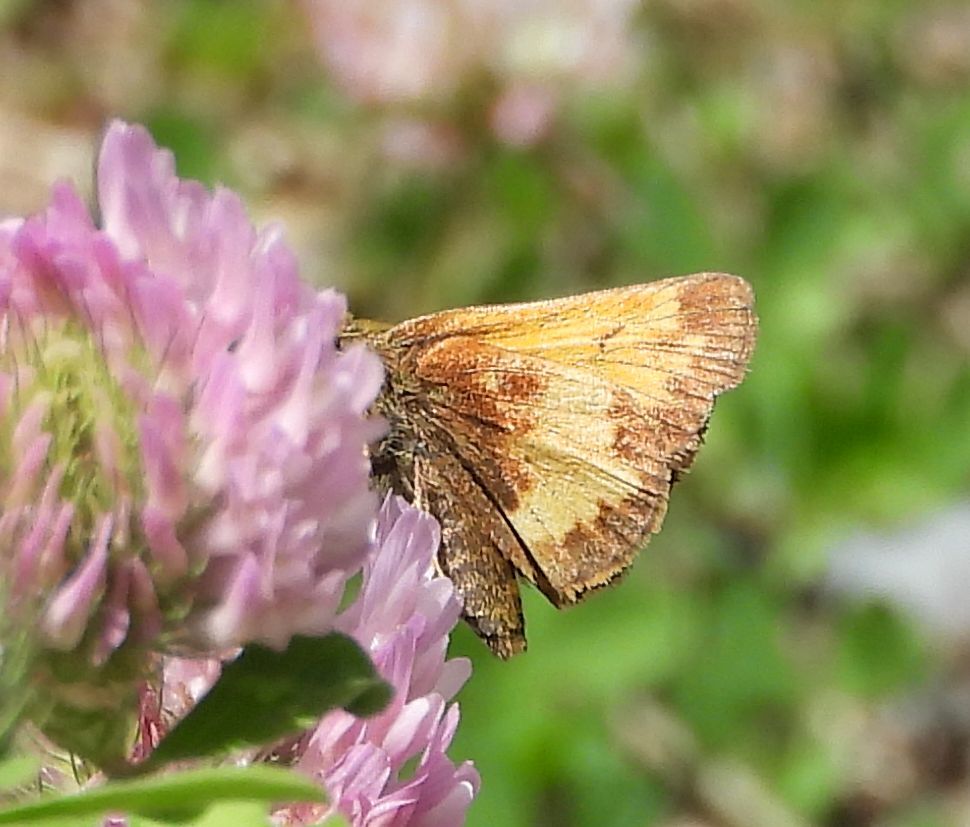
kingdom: Animalia
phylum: Arthropoda
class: Insecta
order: Lepidoptera
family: Hesperiidae
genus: Lon
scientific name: Lon hobomok
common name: Hobomok skipper
